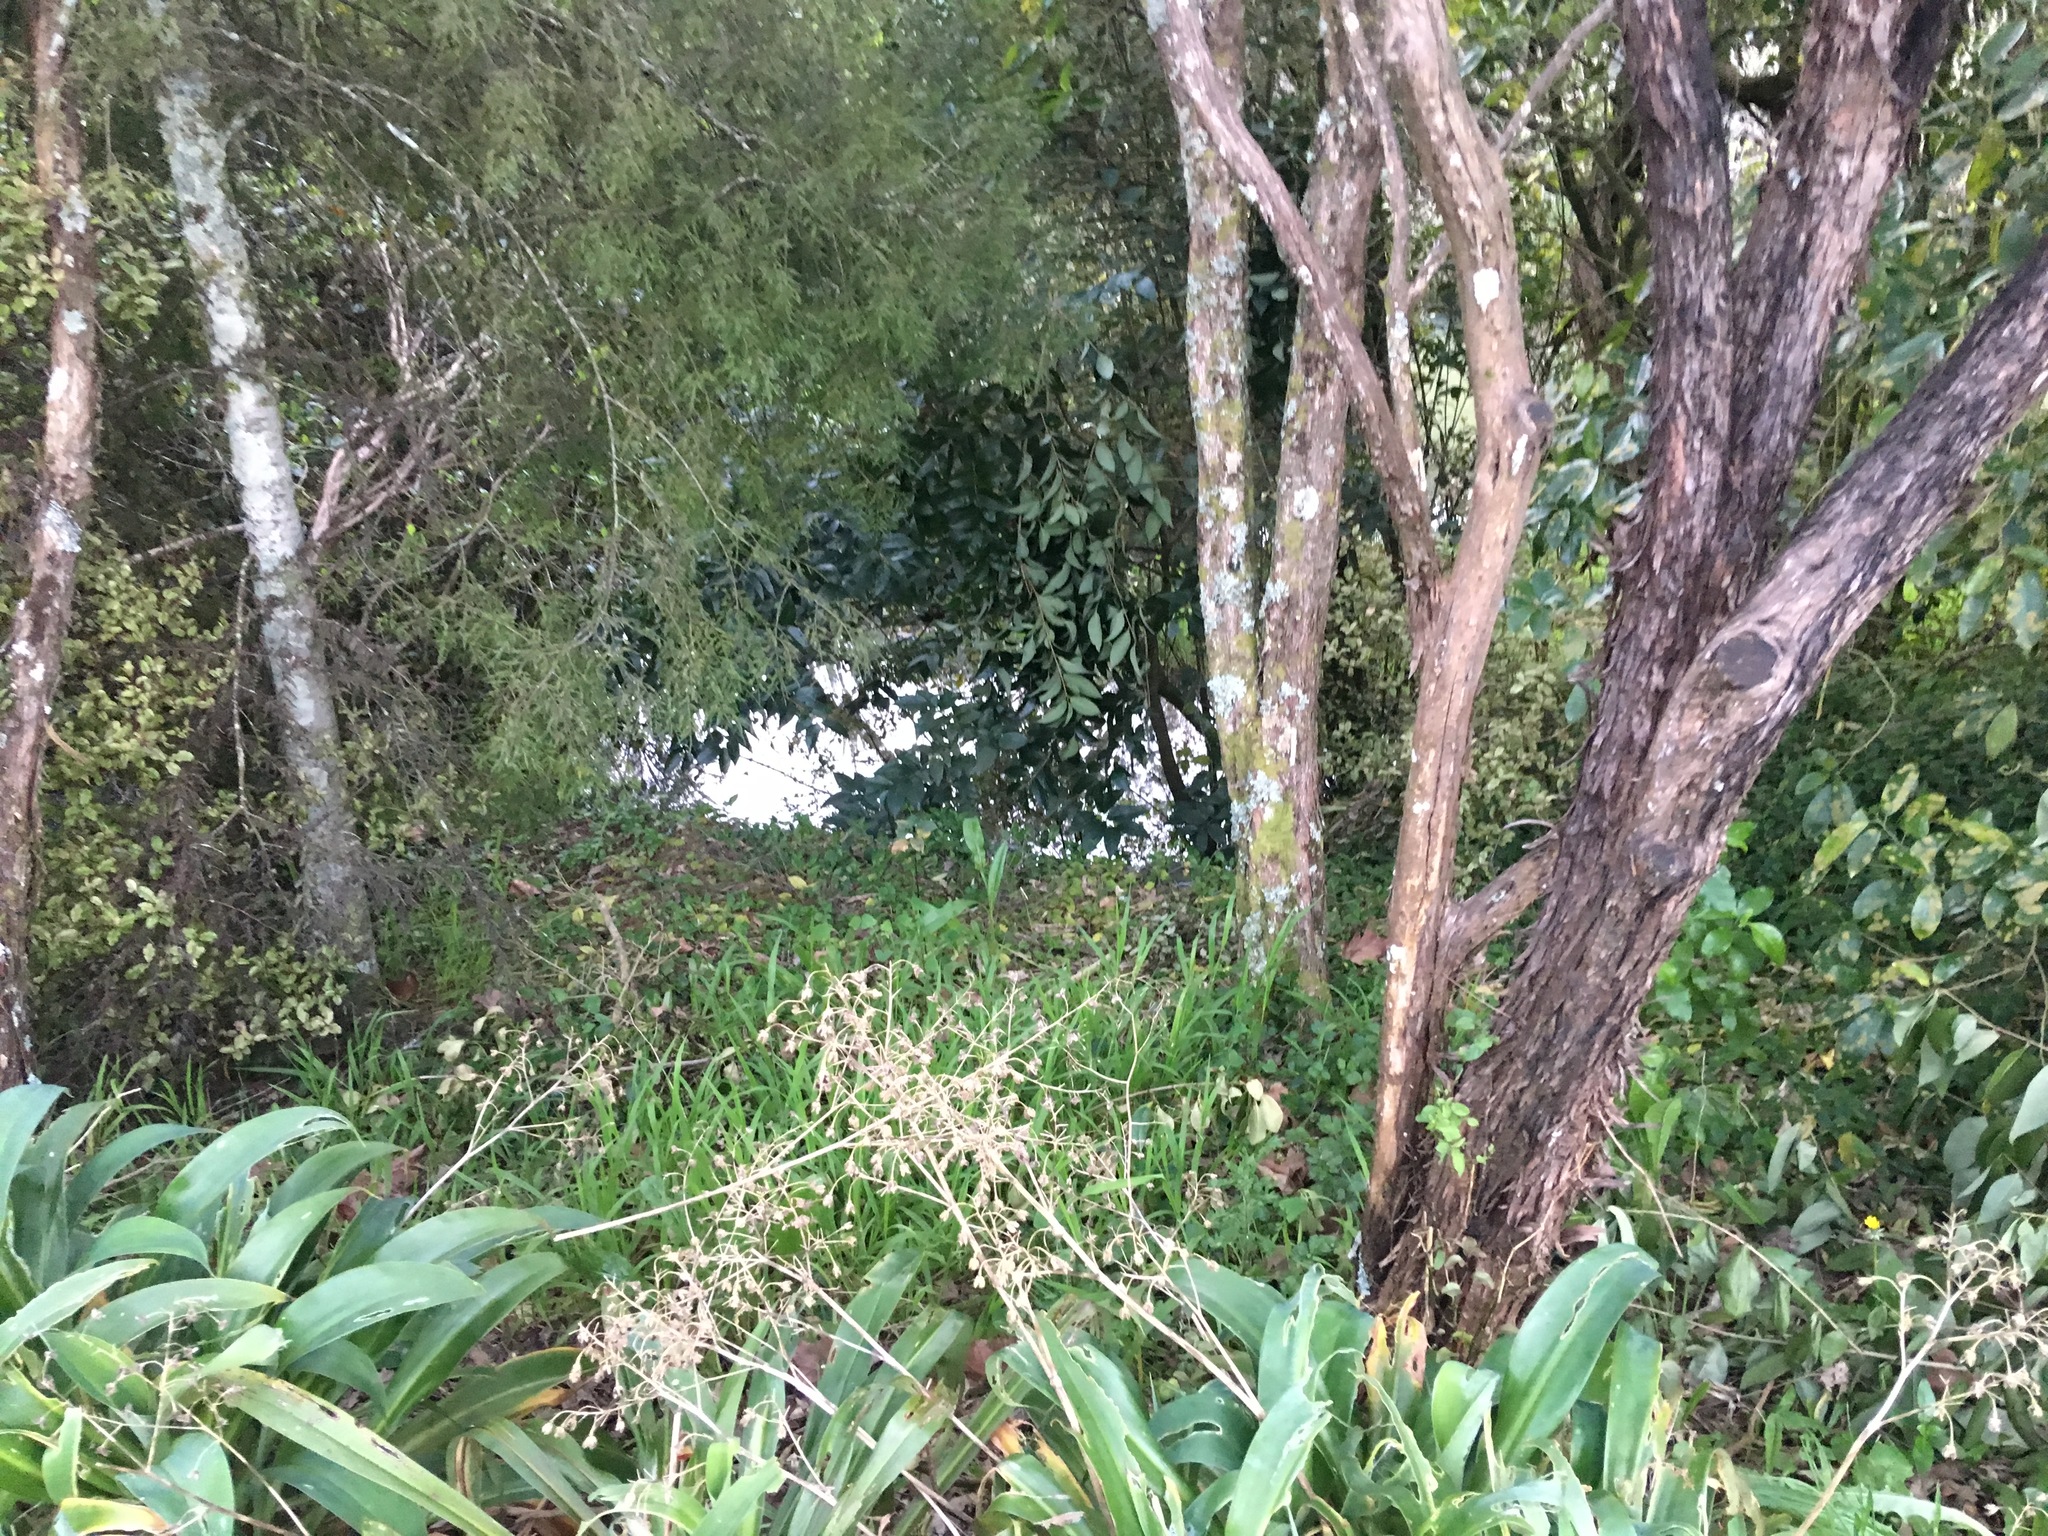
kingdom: Plantae
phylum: Tracheophyta
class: Magnoliopsida
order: Lamiales
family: Oleaceae
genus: Ligustrum
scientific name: Ligustrum lucidum
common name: Glossy privet
